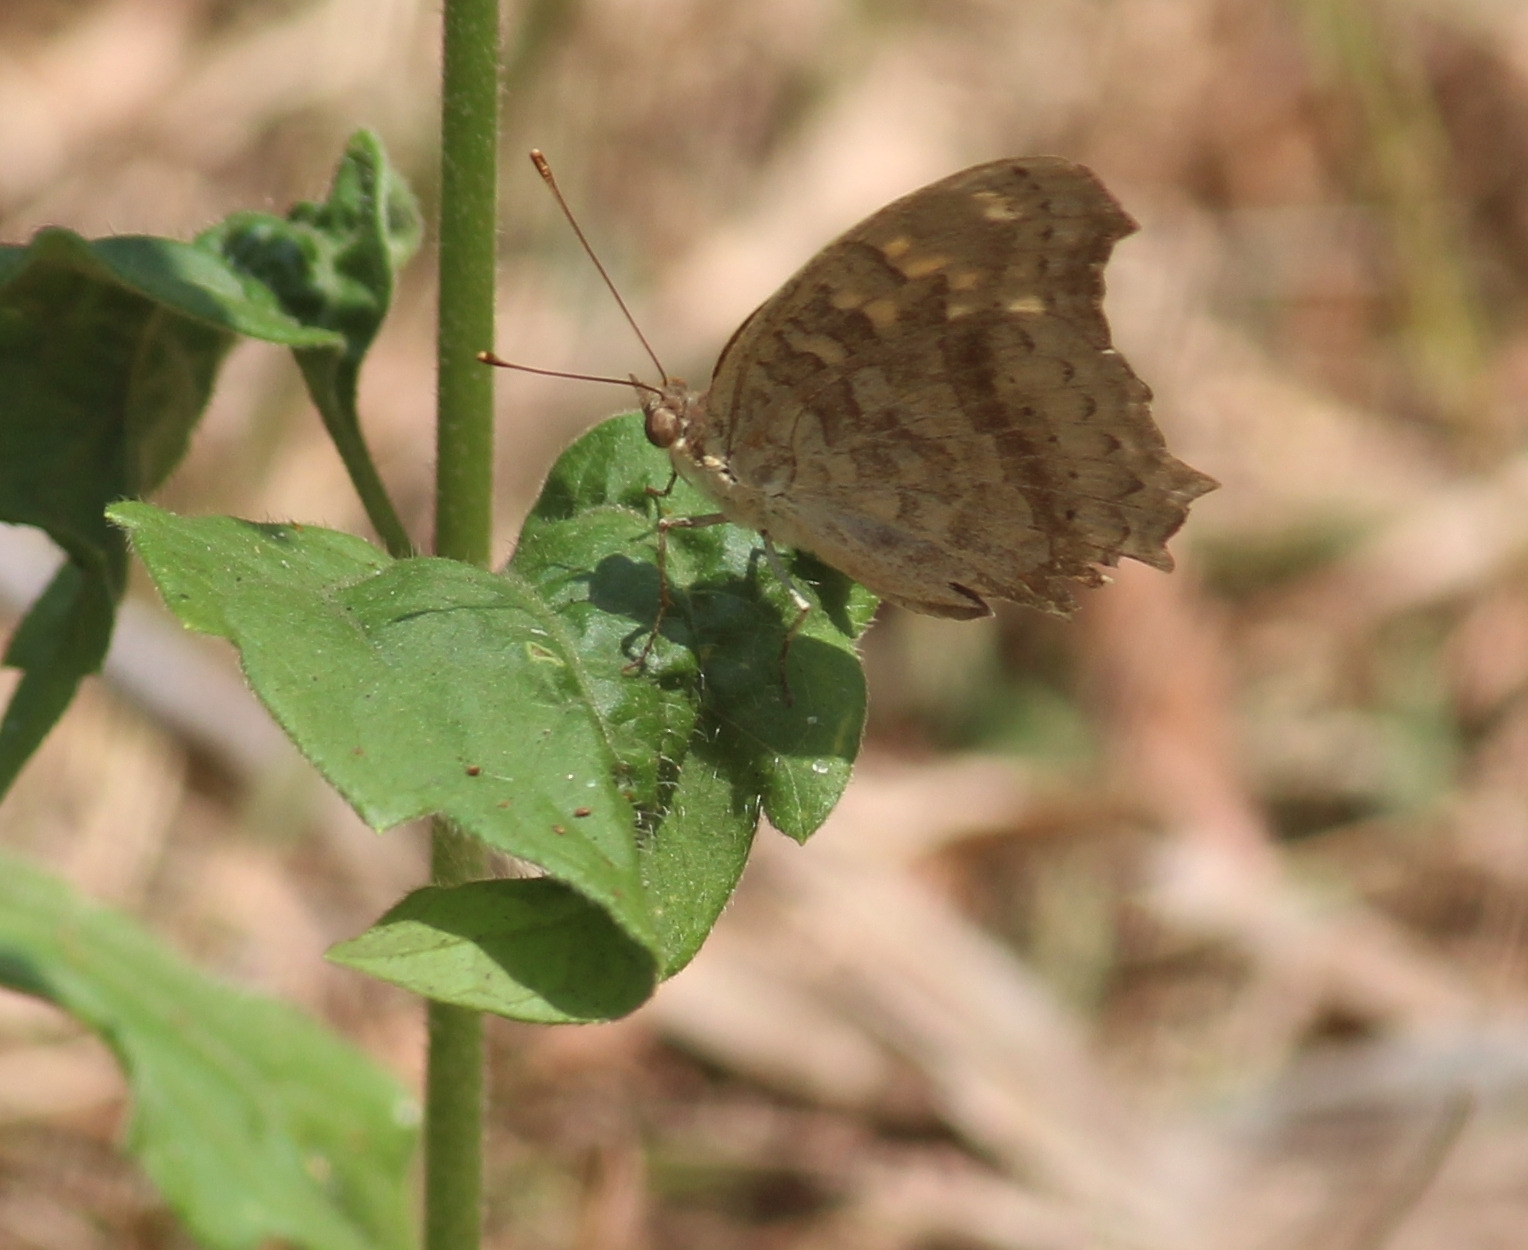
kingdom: Animalia
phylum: Arthropoda
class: Insecta
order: Lepidoptera
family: Nymphalidae
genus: Junonia
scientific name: Junonia lemonias
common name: Lemon pansy
